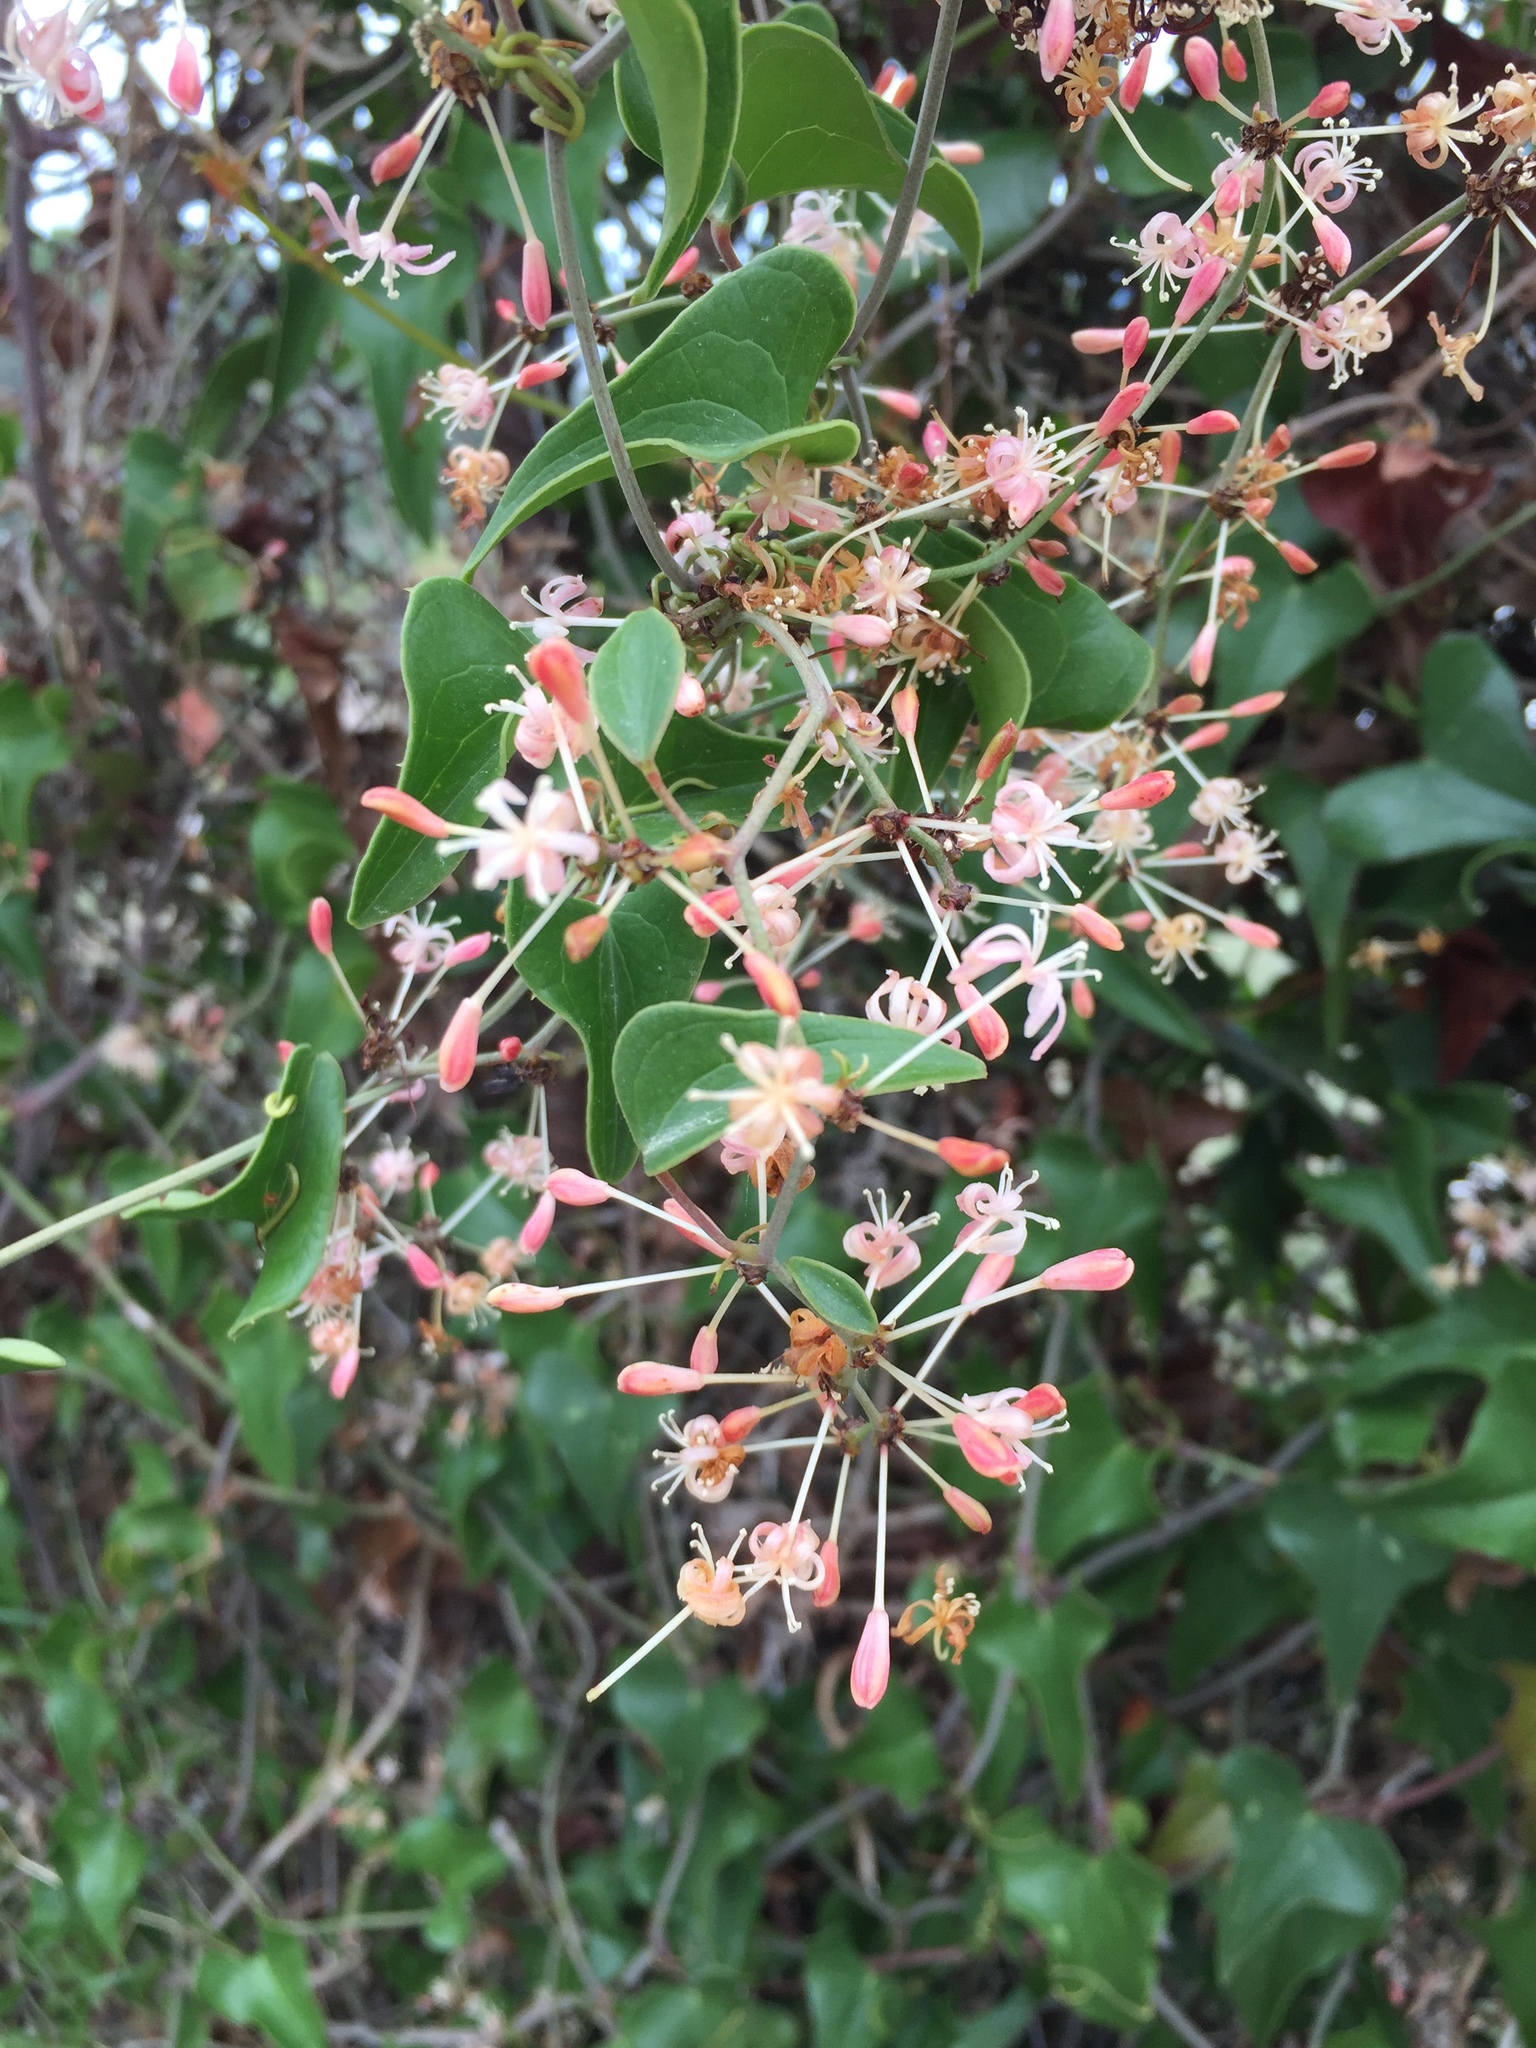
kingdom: Plantae
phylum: Tracheophyta
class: Liliopsida
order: Liliales
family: Smilacaceae
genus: Smilax
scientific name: Smilax aspera
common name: Common smilax
